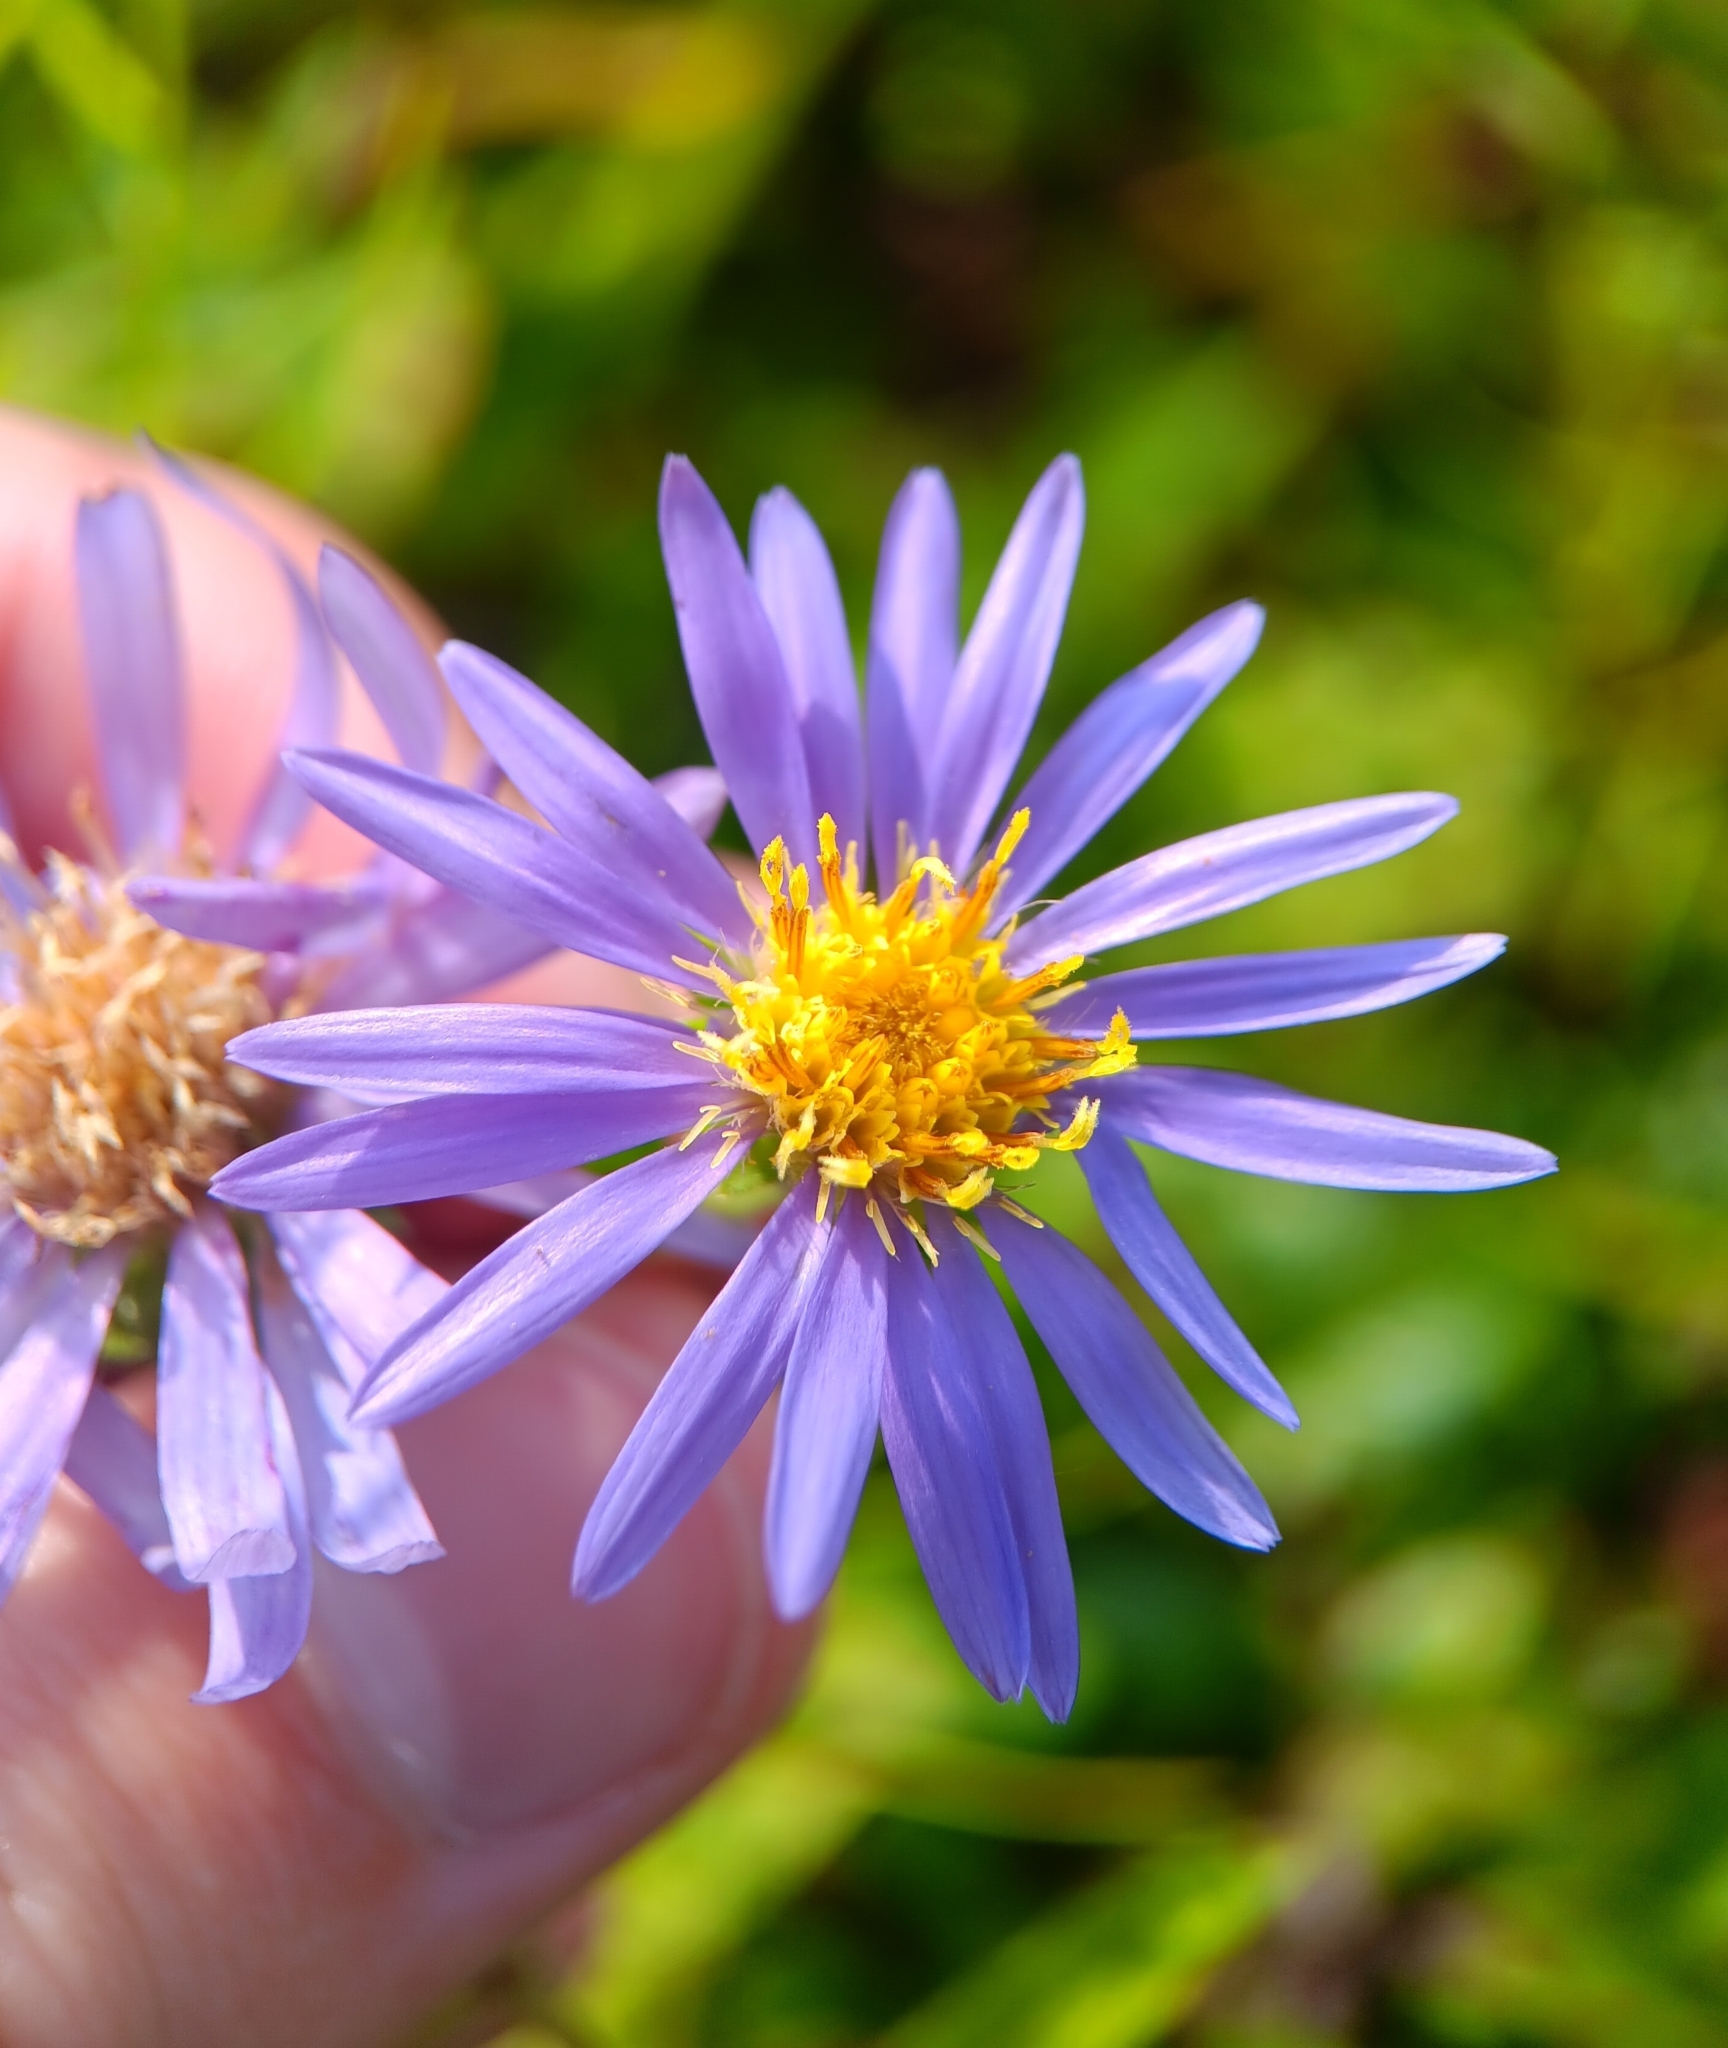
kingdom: Plantae
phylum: Tracheophyta
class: Magnoliopsida
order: Asterales
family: Asteraceae
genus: Eurybia
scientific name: Eurybia spectabilis
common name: Low showy aster
